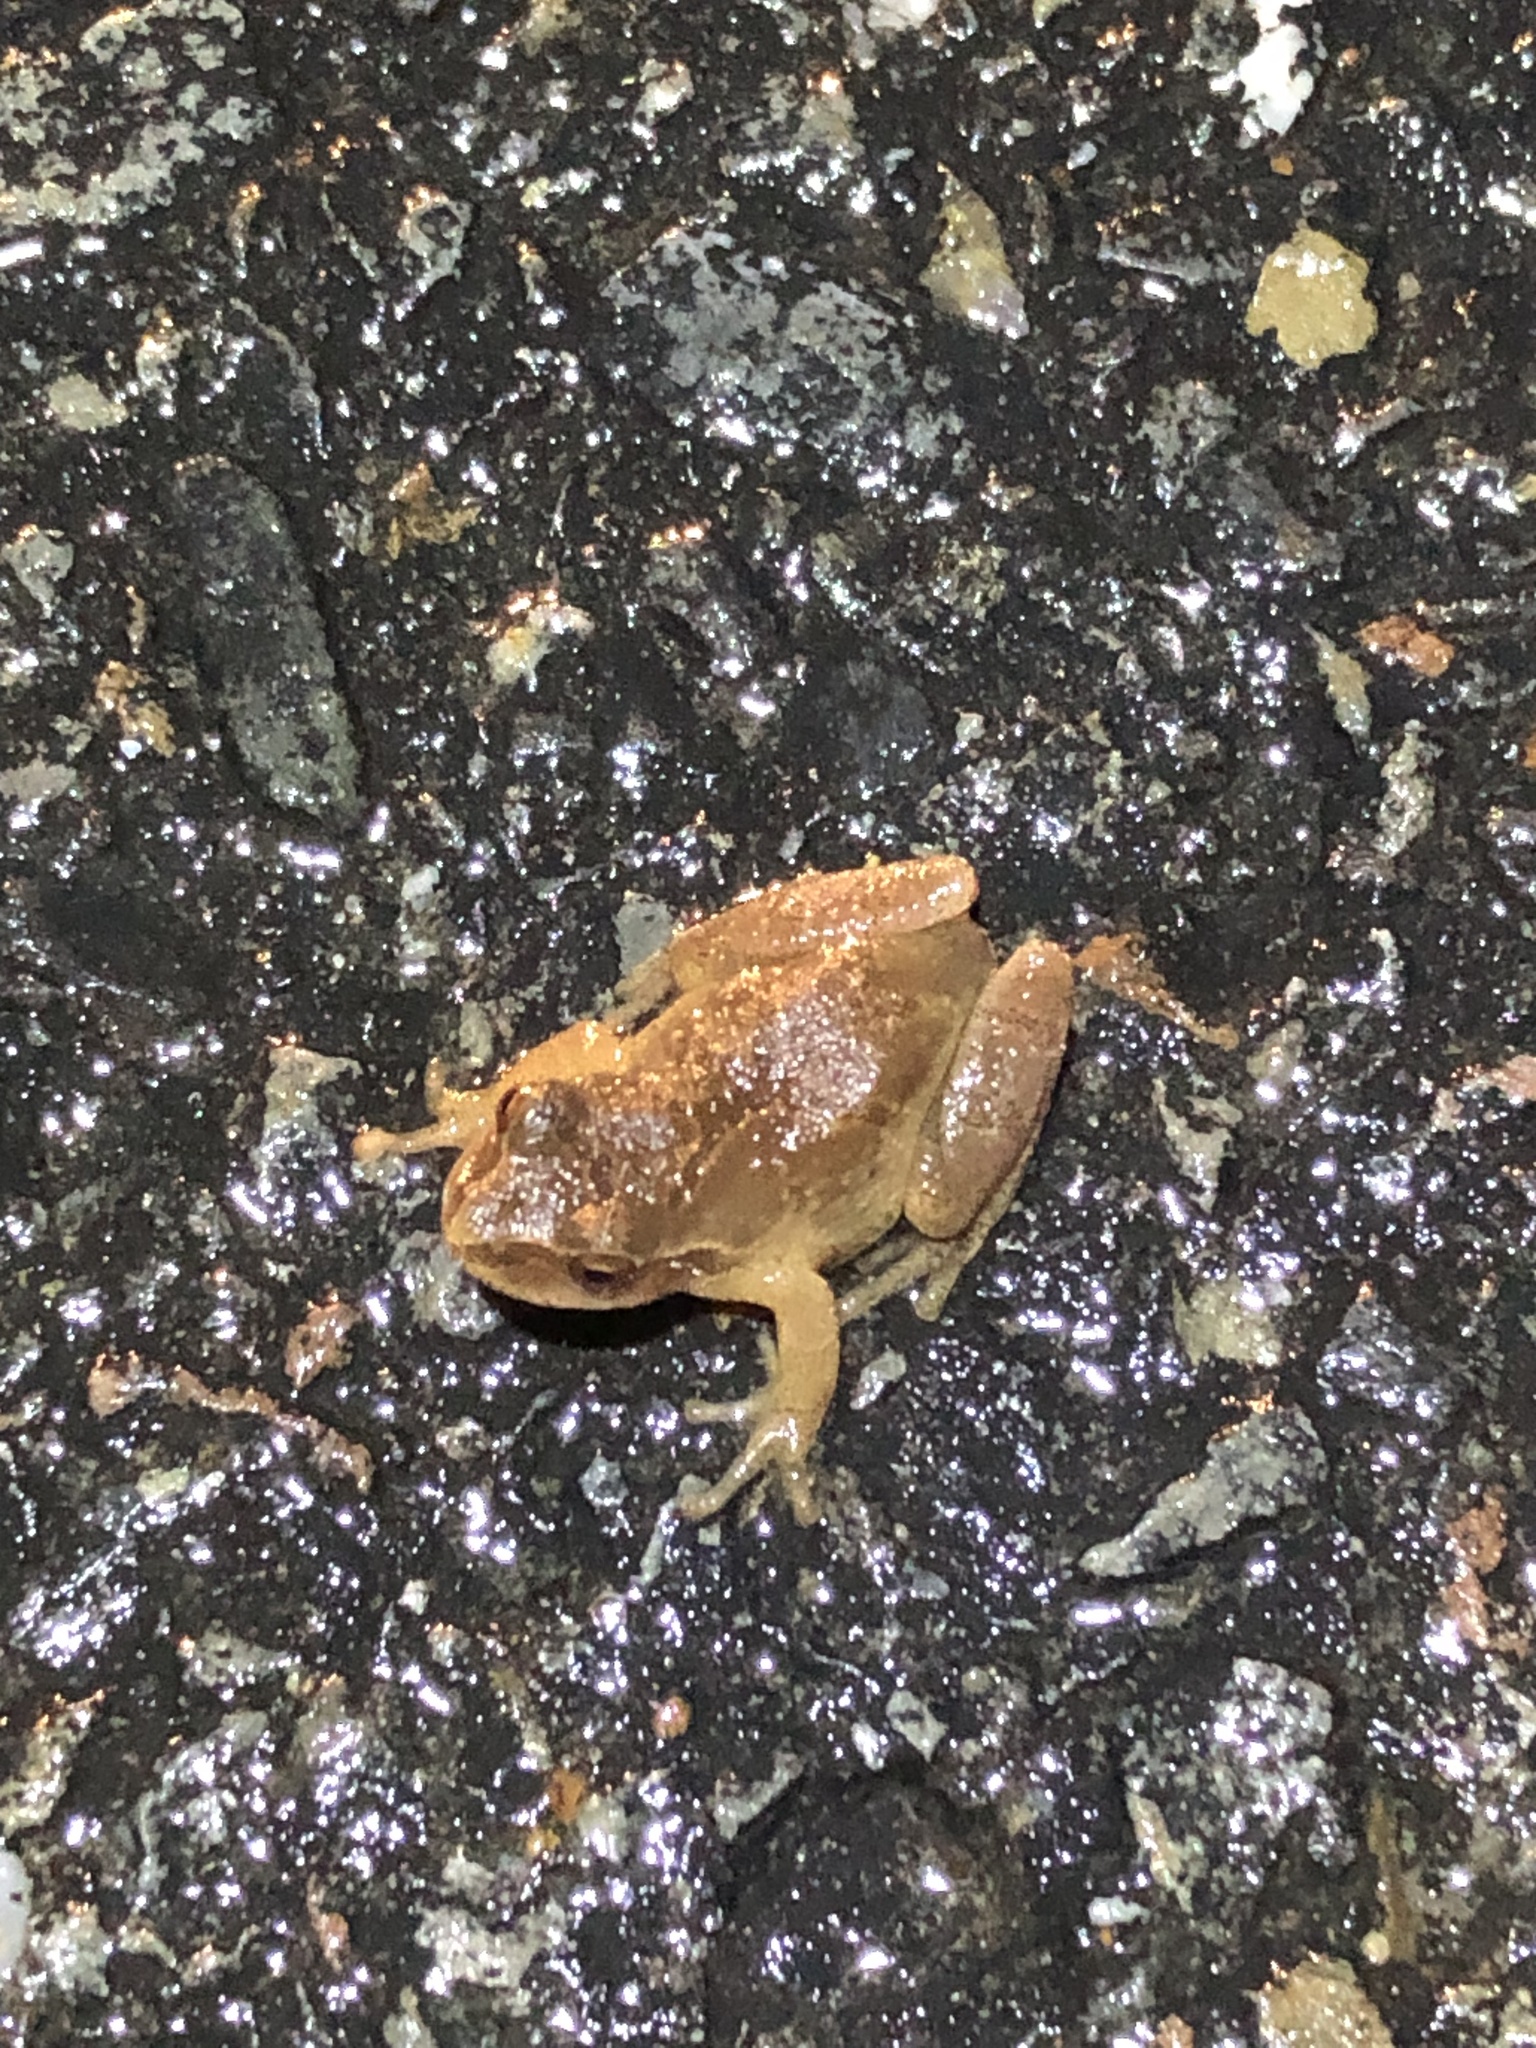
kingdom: Animalia
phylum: Chordata
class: Amphibia
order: Anura
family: Hylidae
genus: Pseudacris
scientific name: Pseudacris crucifer
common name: Spring peeper
